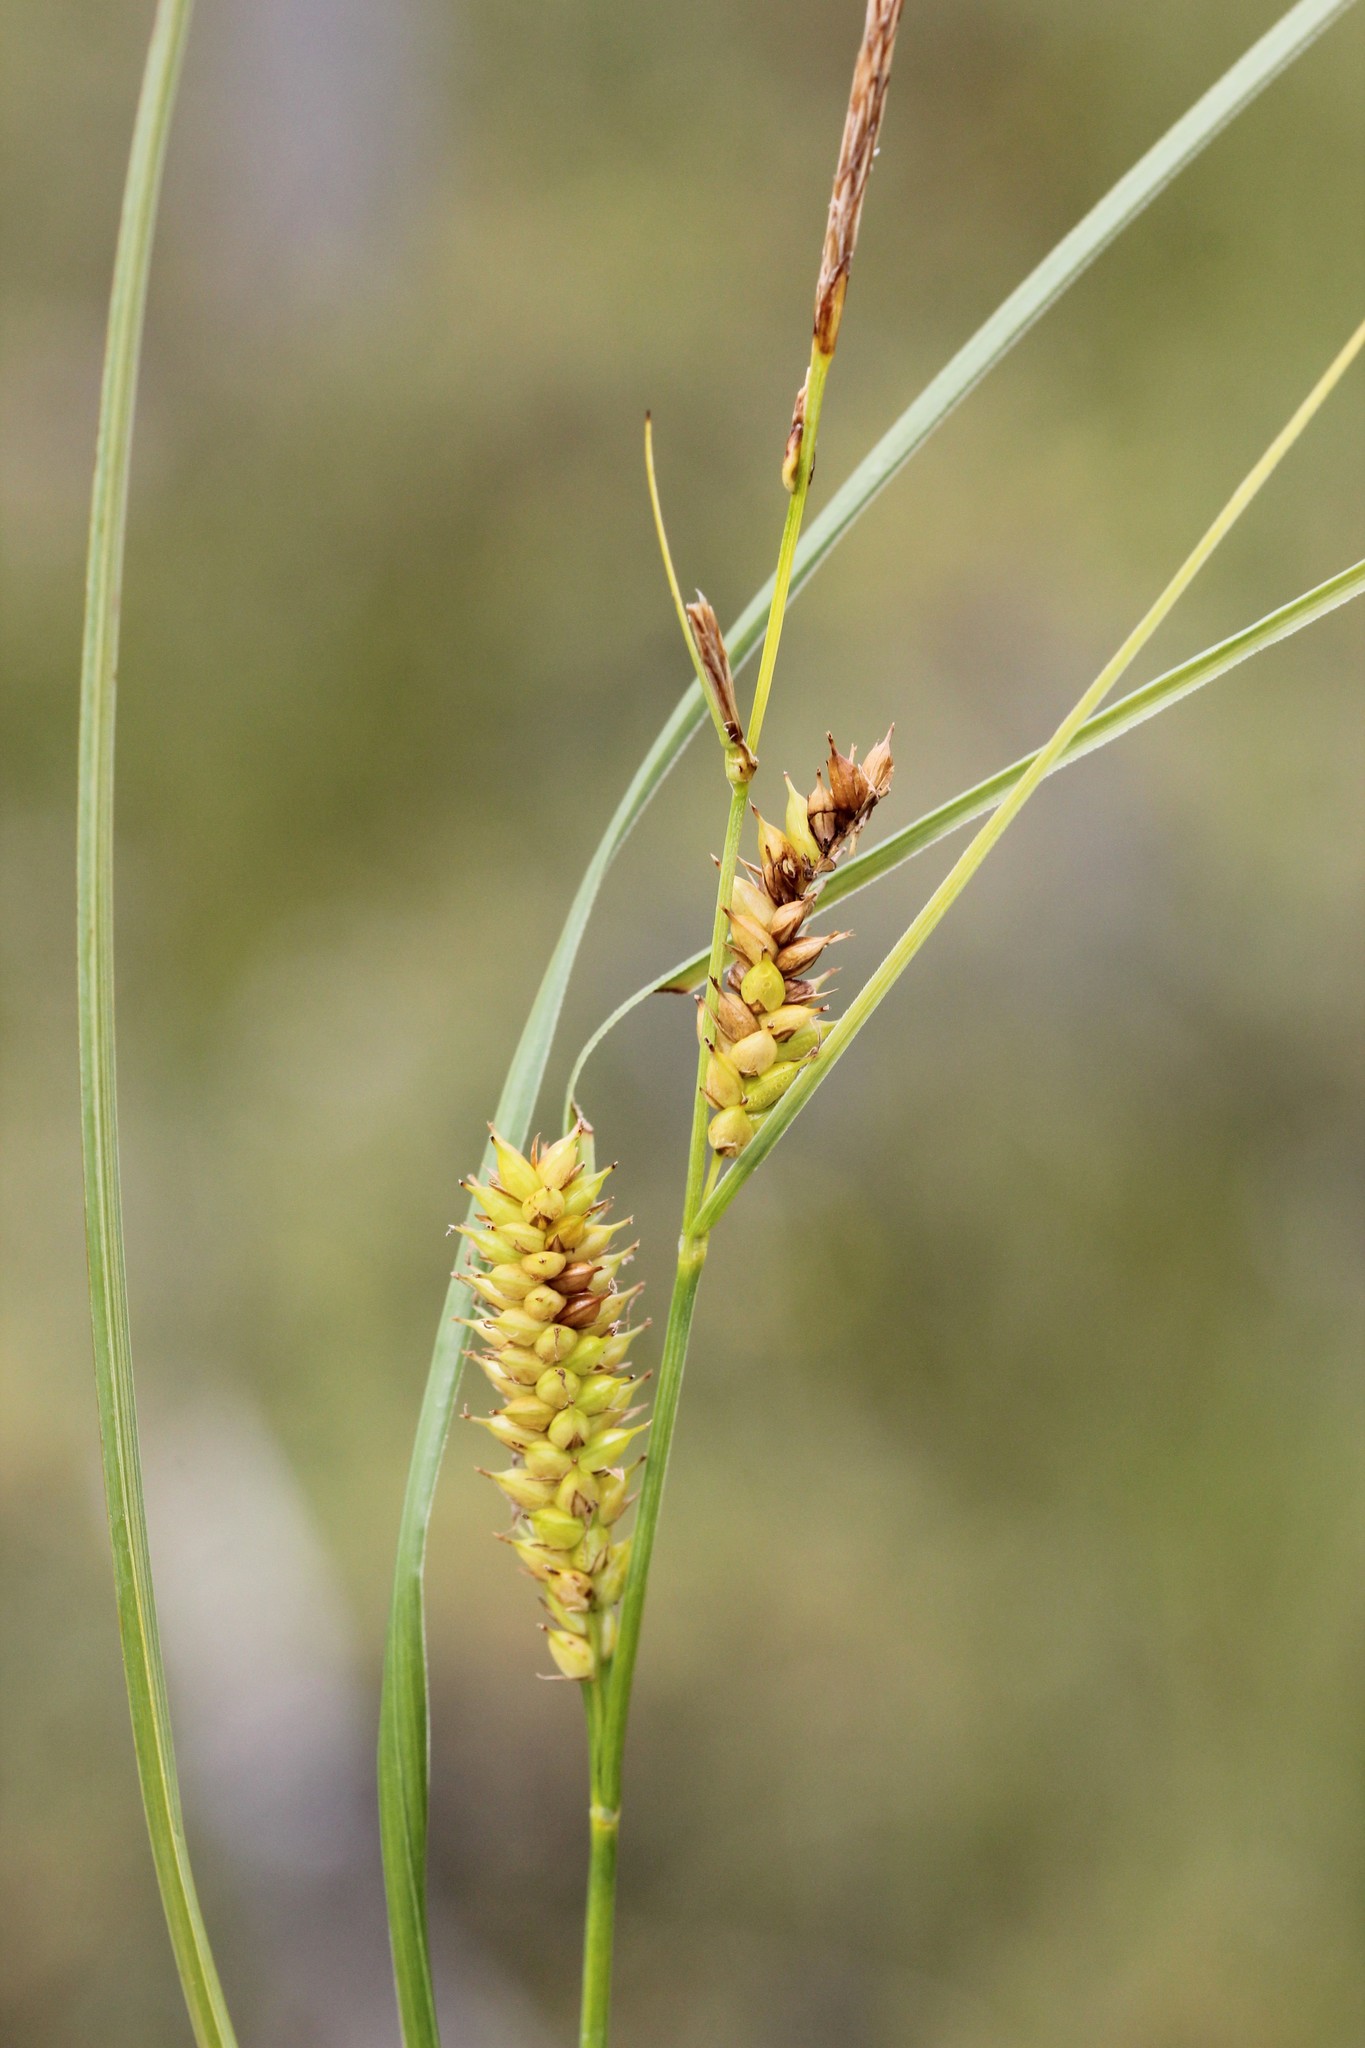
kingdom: Plantae
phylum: Tracheophyta
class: Liliopsida
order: Poales
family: Cyperaceae
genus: Carex
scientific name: Carex rostrata
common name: Bottle sedge
